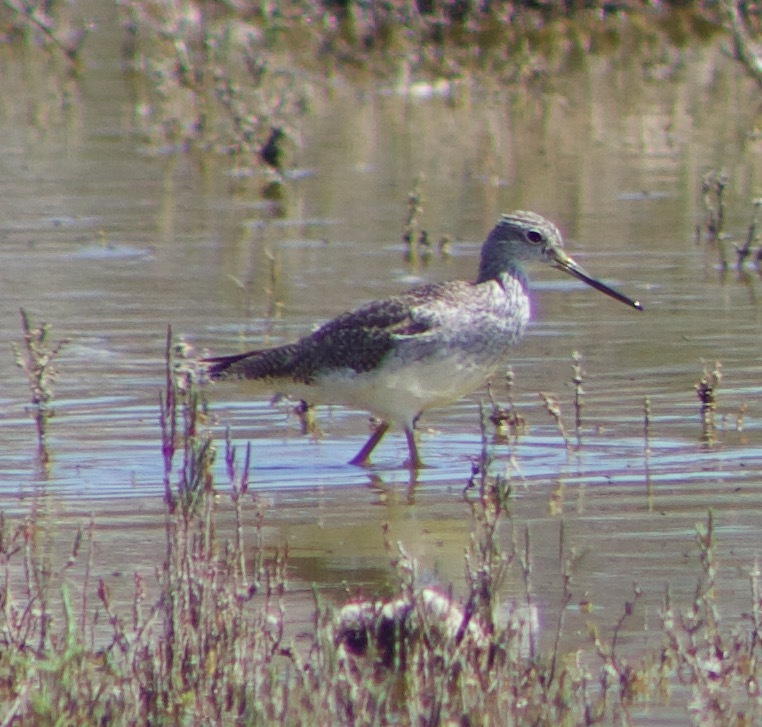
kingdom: Animalia
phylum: Chordata
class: Aves
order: Charadriiformes
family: Scolopacidae
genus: Tringa
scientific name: Tringa melanoleuca
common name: Greater yellowlegs
